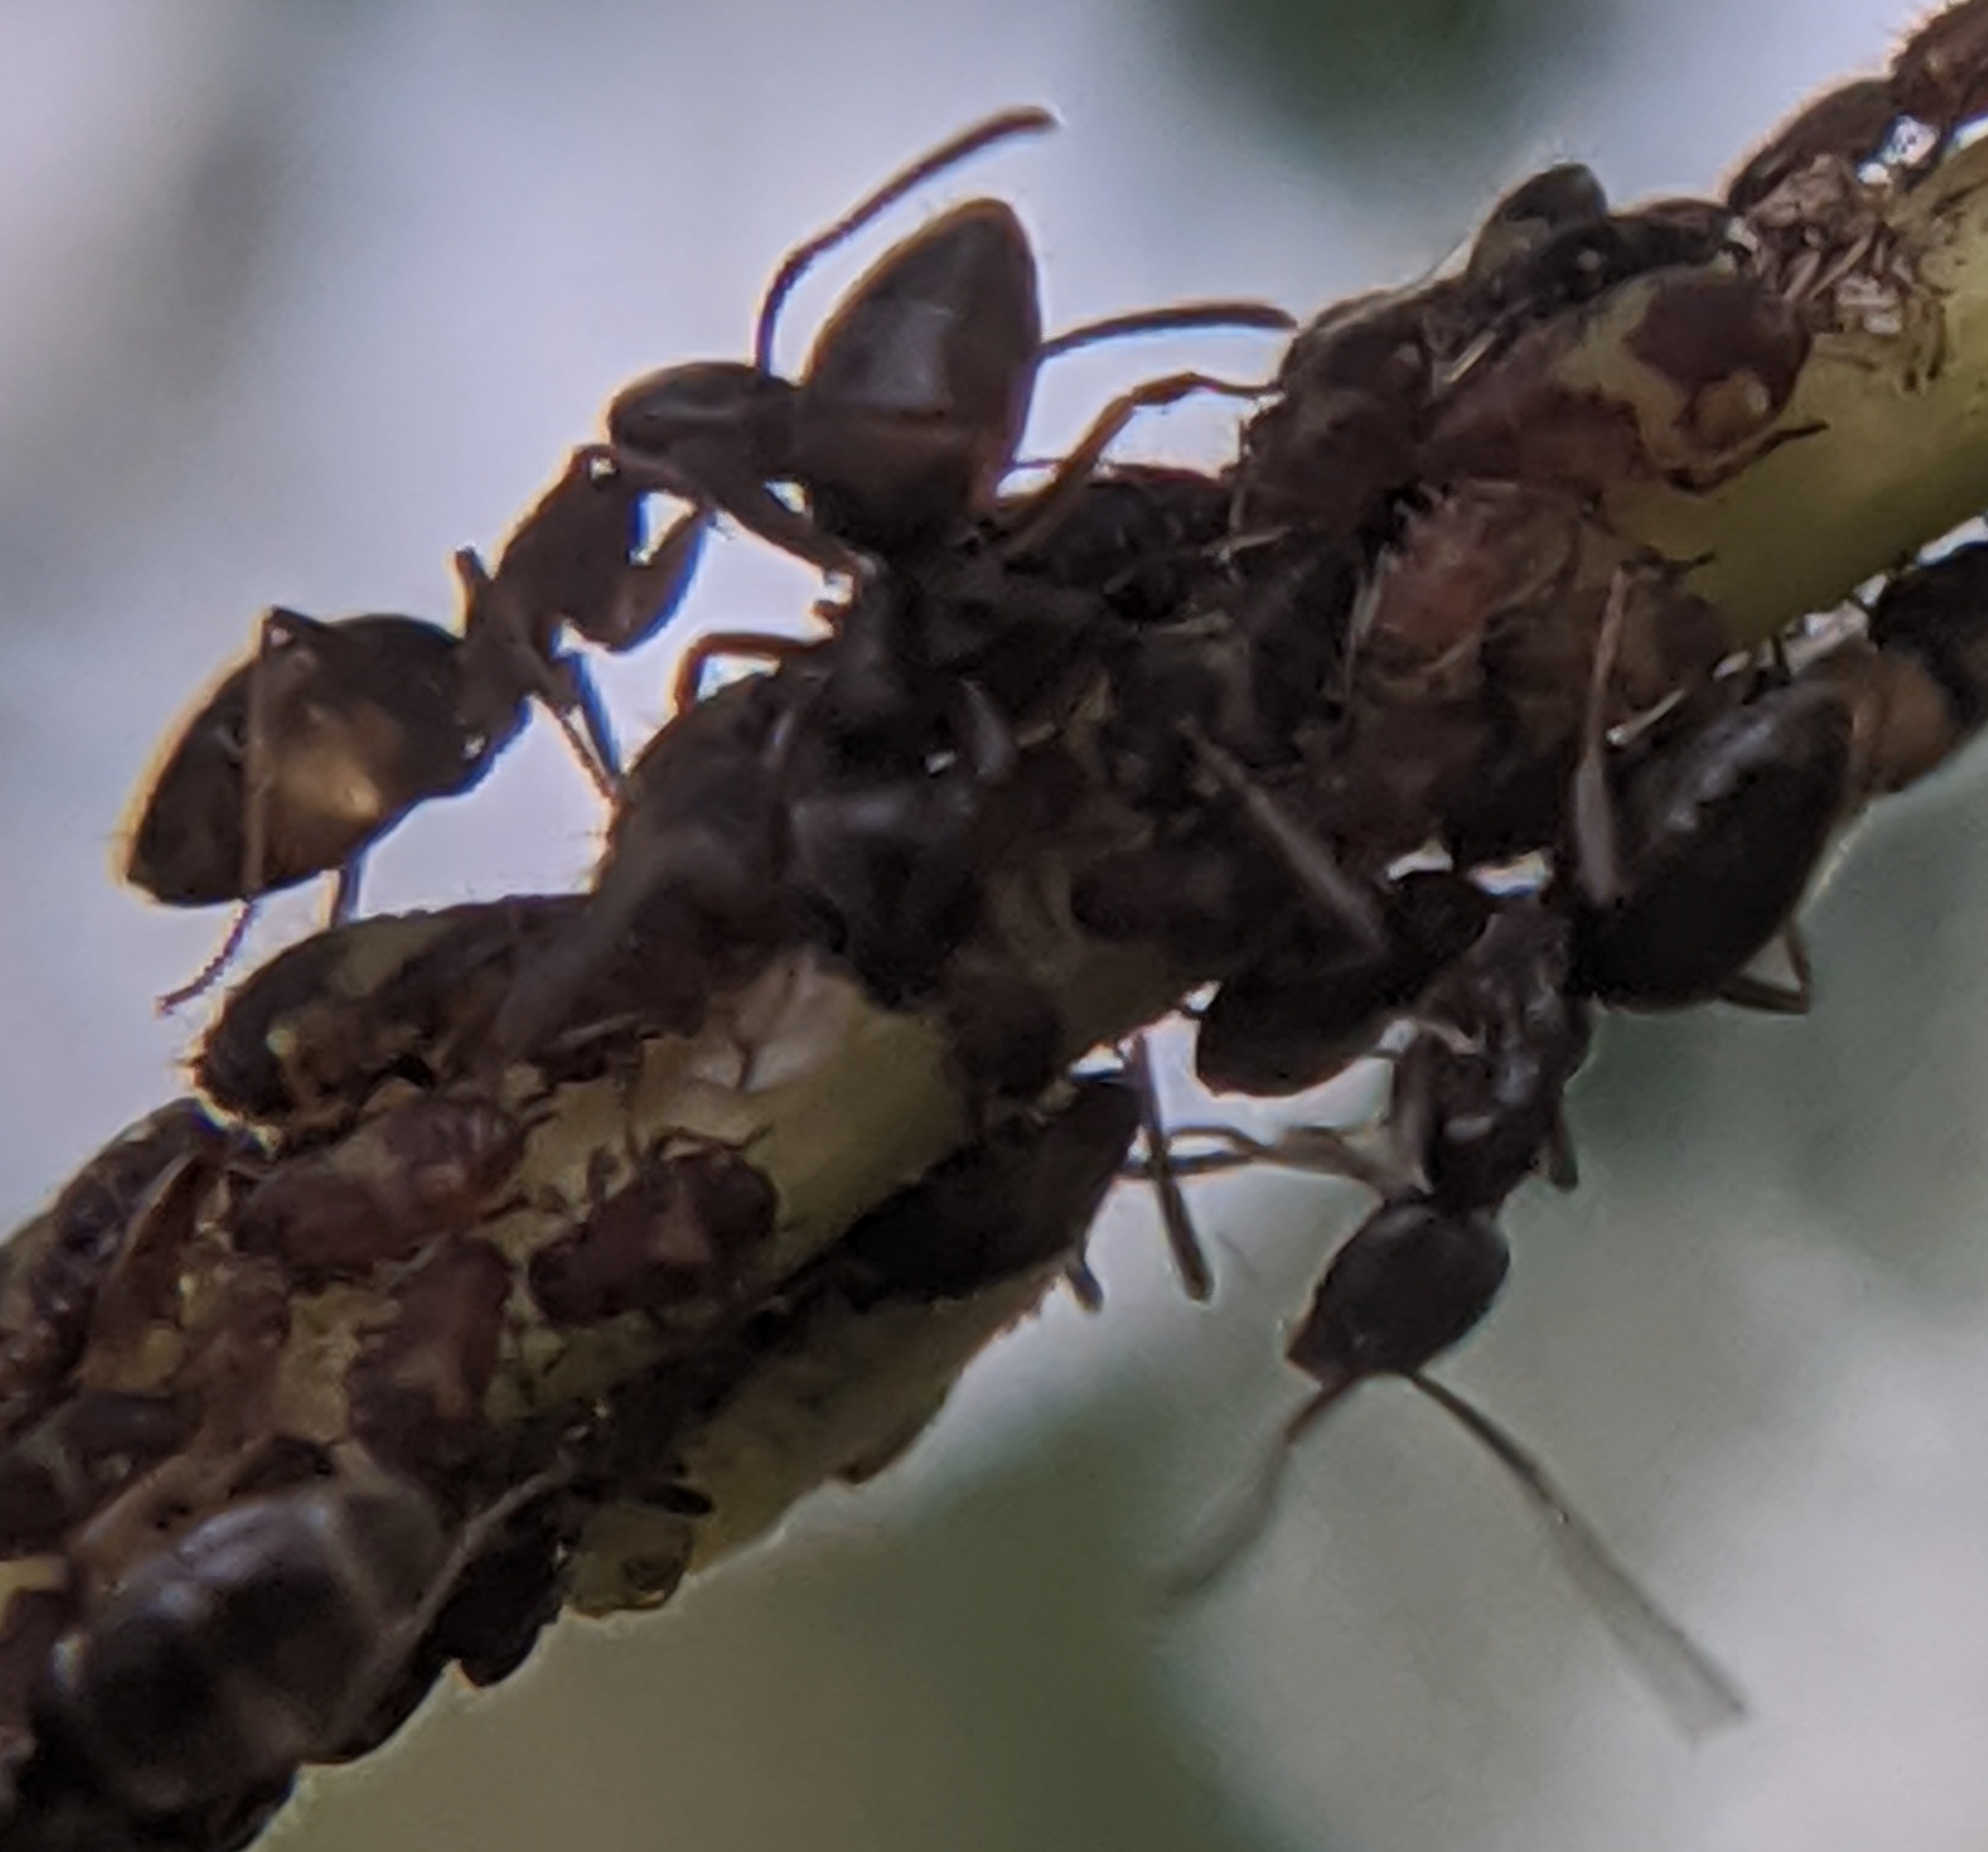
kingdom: Animalia
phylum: Arthropoda
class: Insecta
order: Hymenoptera
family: Formicidae
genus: Tapinoma
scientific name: Tapinoma sessile
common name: Odorous house ant
